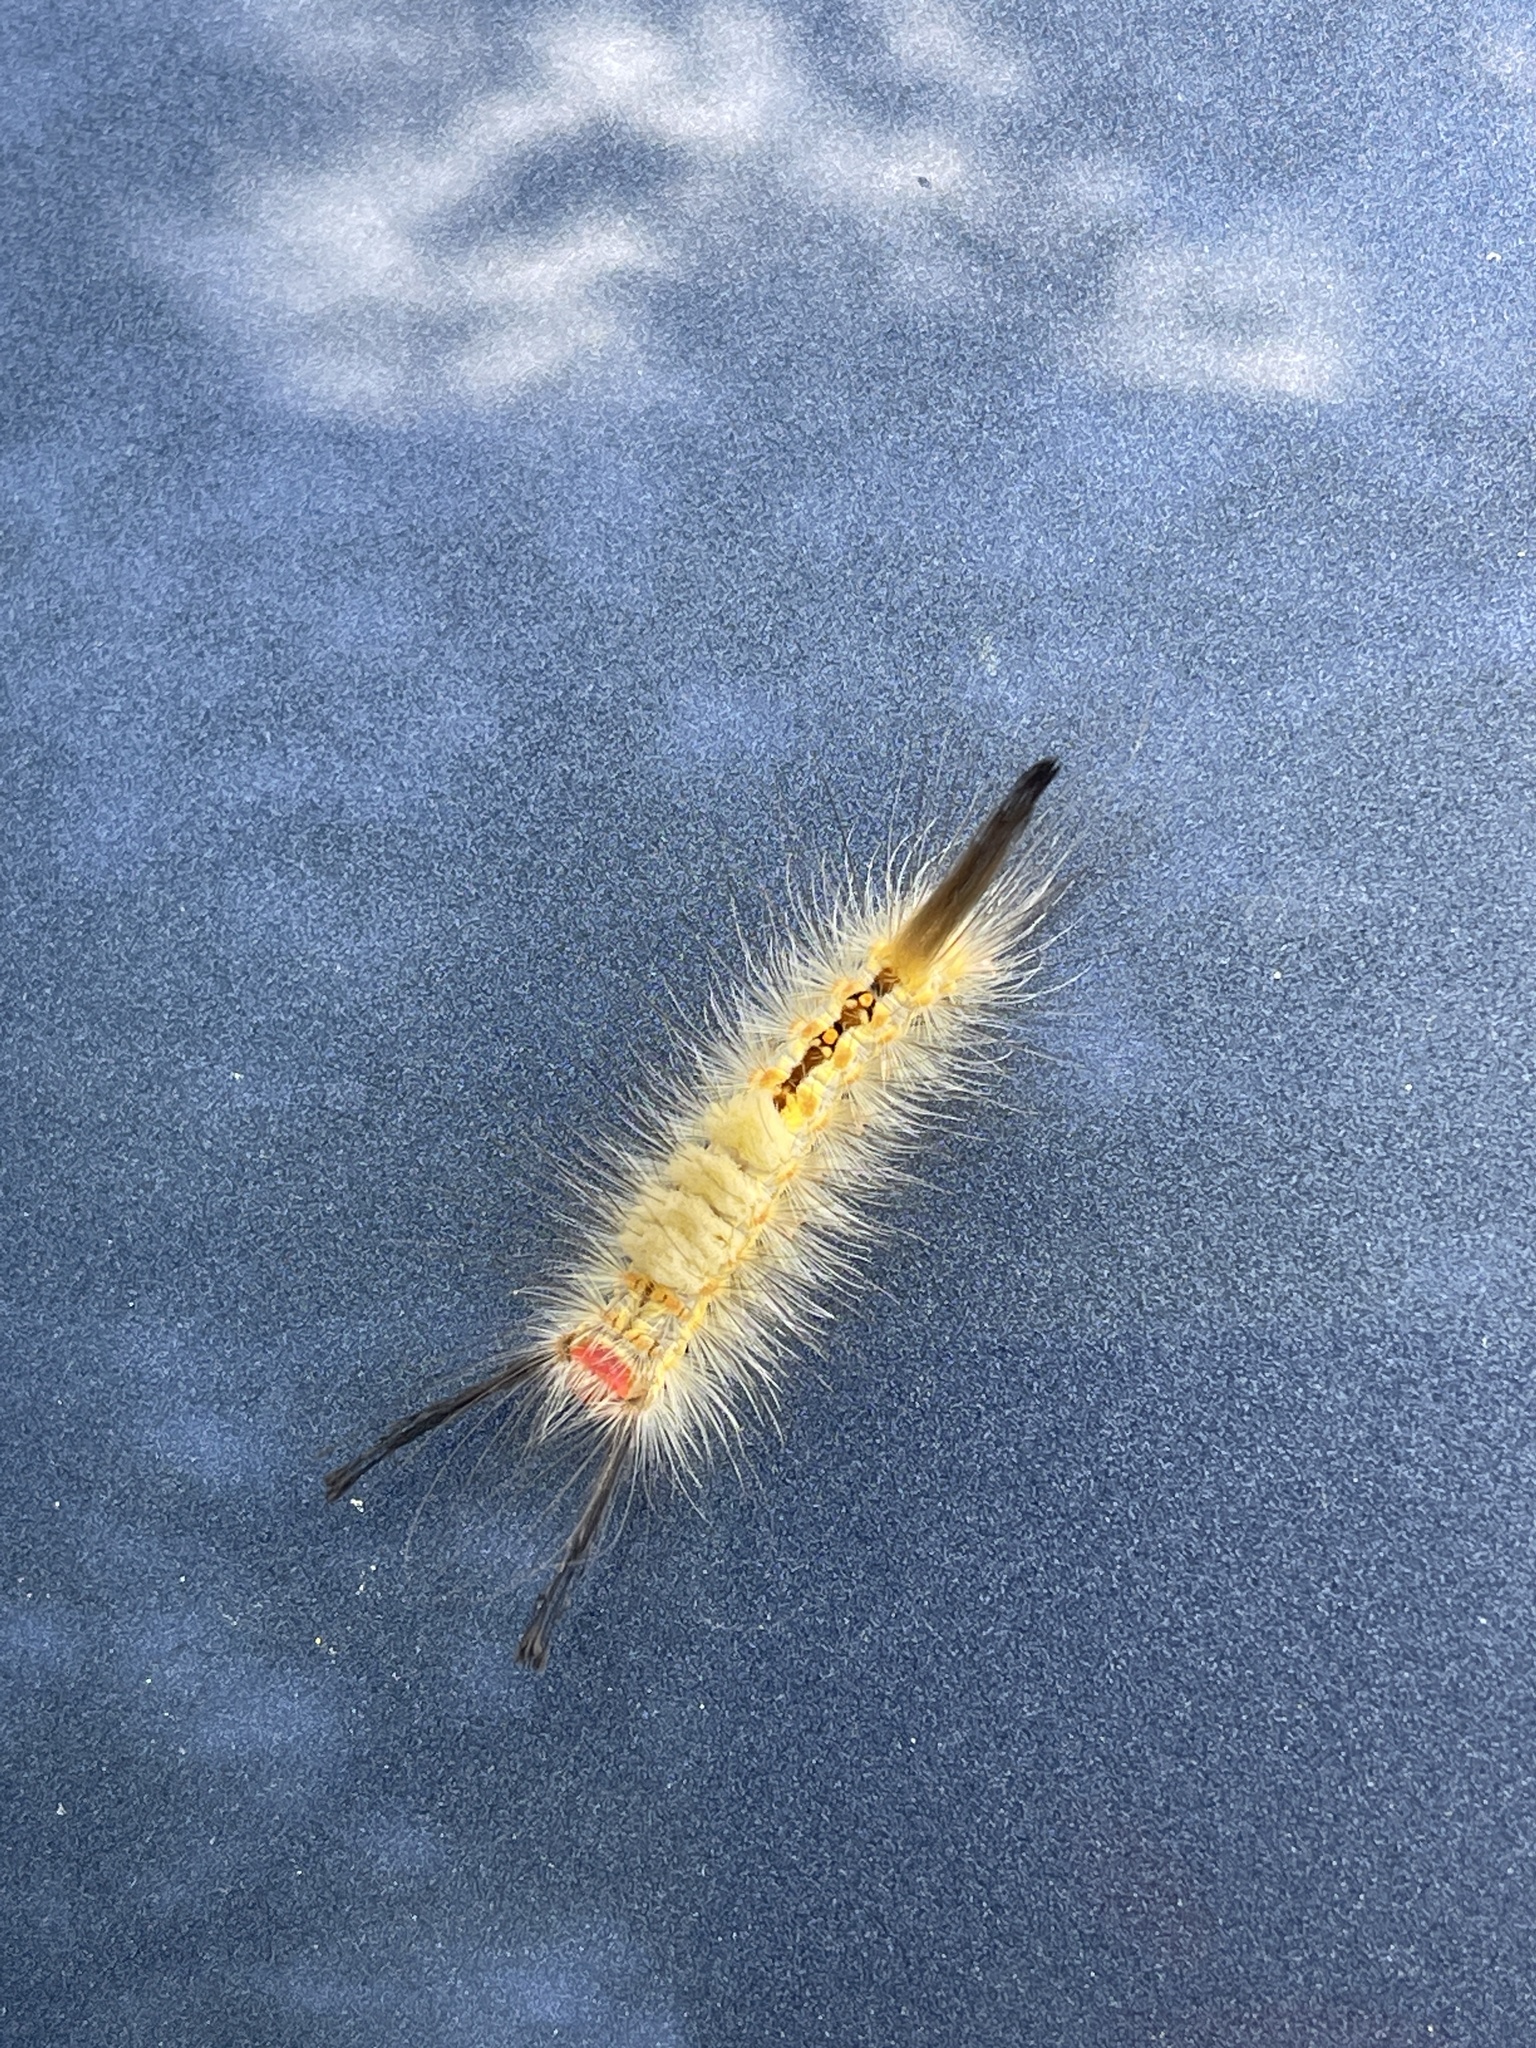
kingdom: Animalia
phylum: Arthropoda
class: Insecta
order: Lepidoptera
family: Erebidae
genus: Orgyia
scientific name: Orgyia detrita
